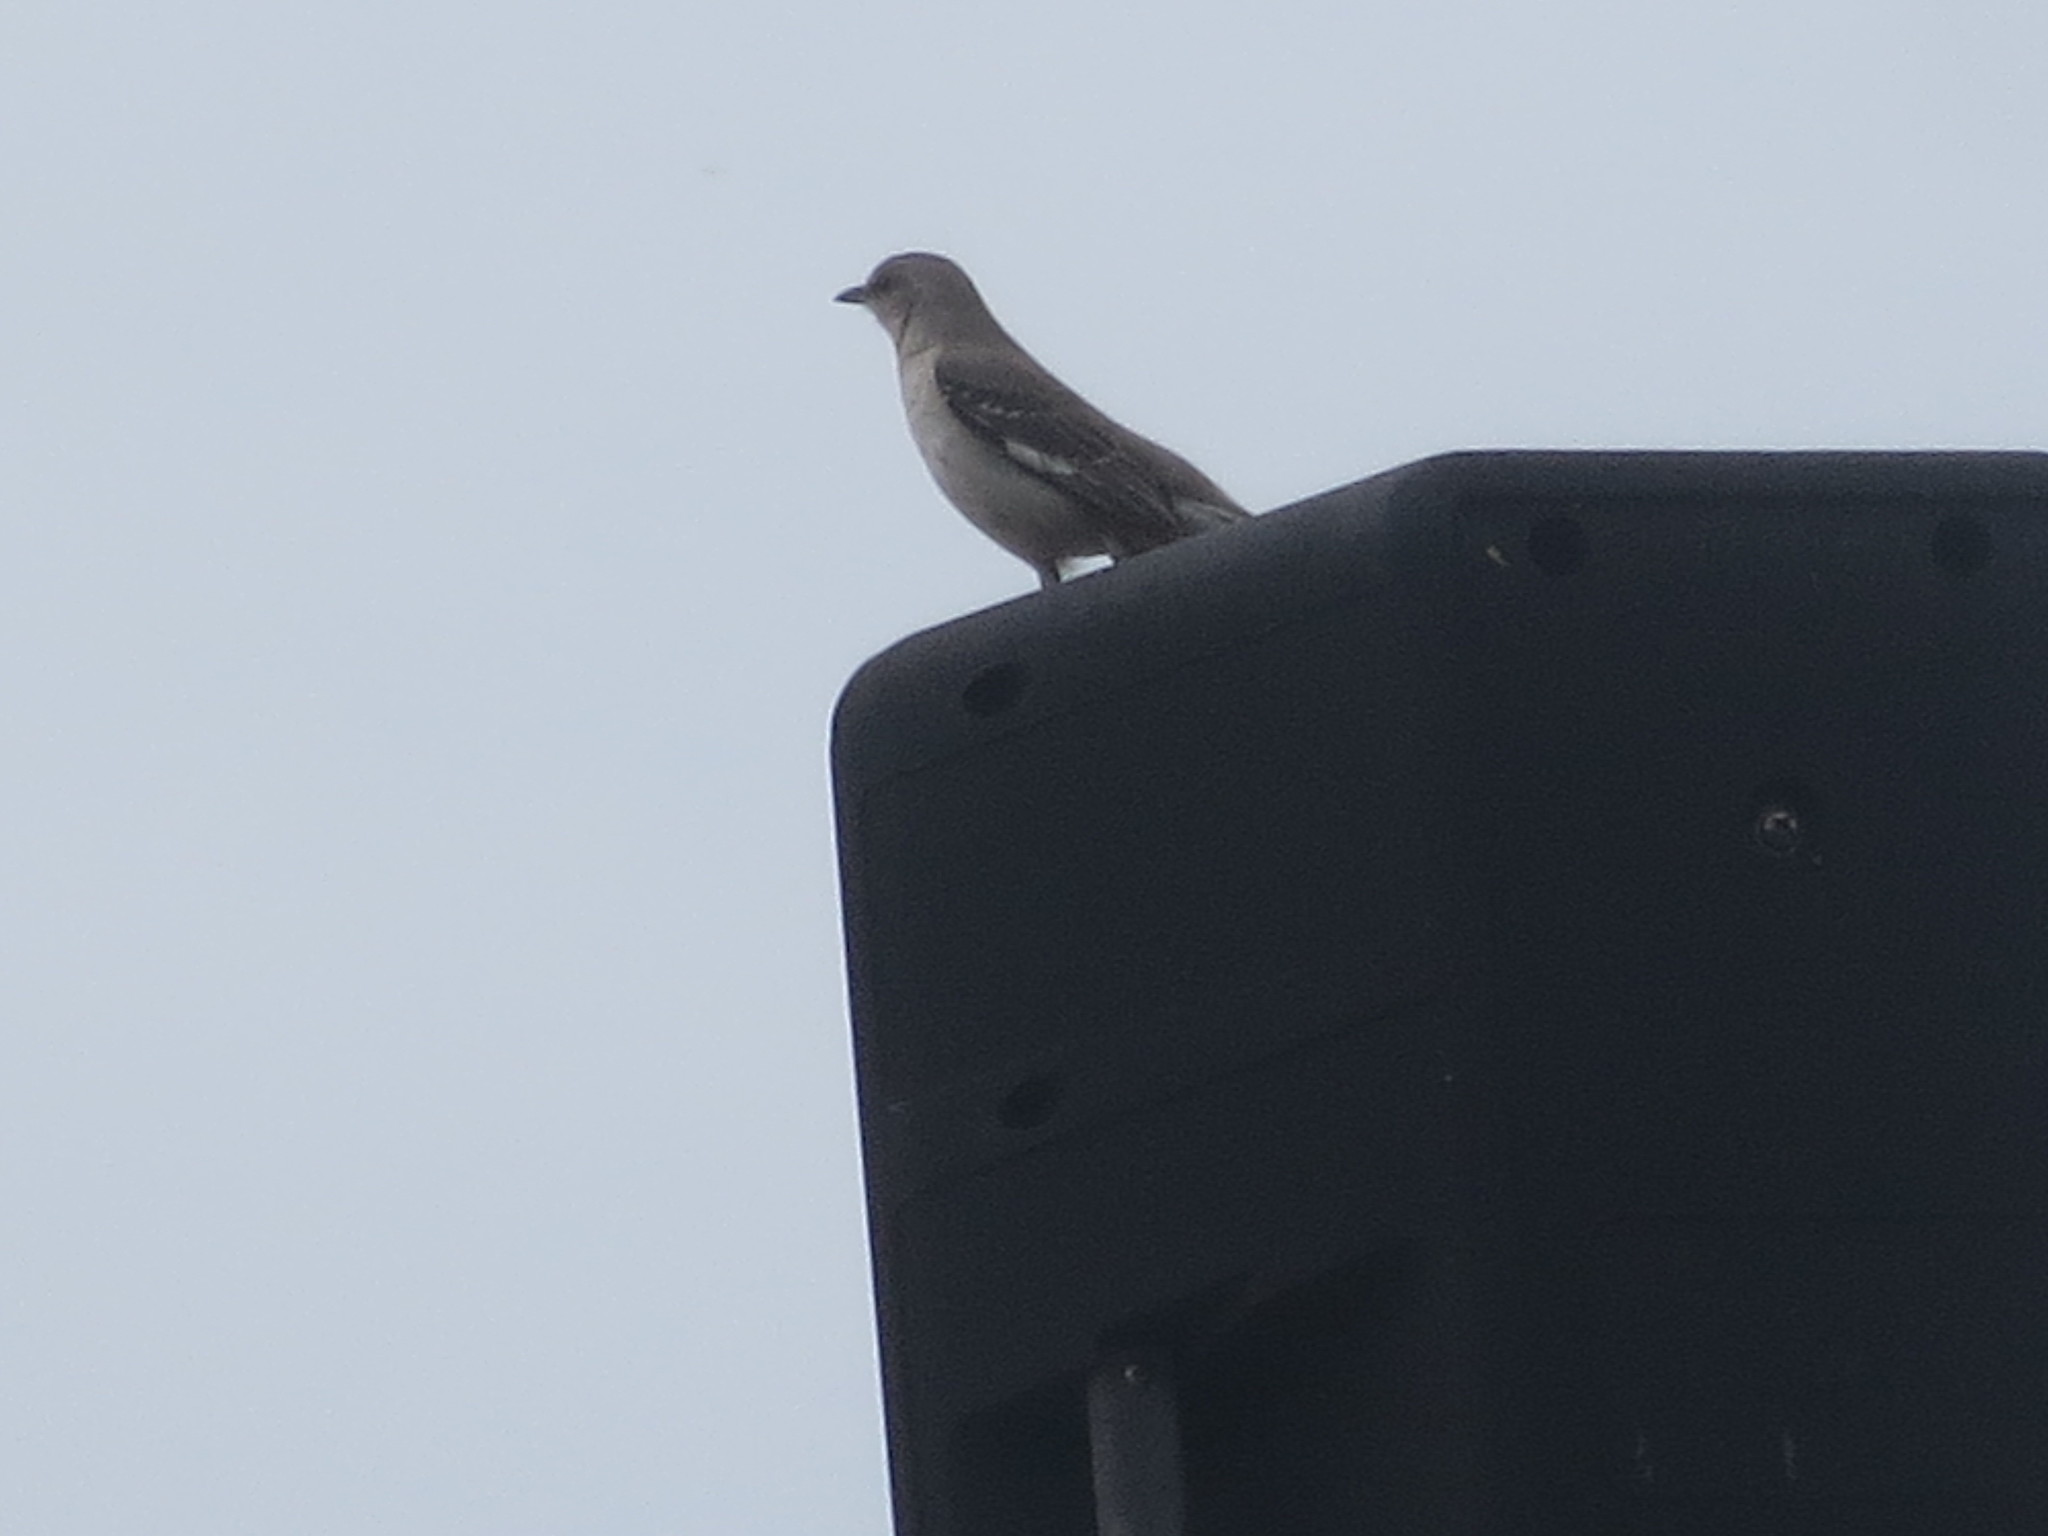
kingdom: Animalia
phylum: Chordata
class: Aves
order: Passeriformes
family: Mimidae
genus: Mimus
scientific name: Mimus polyglottos
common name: Northern mockingbird
